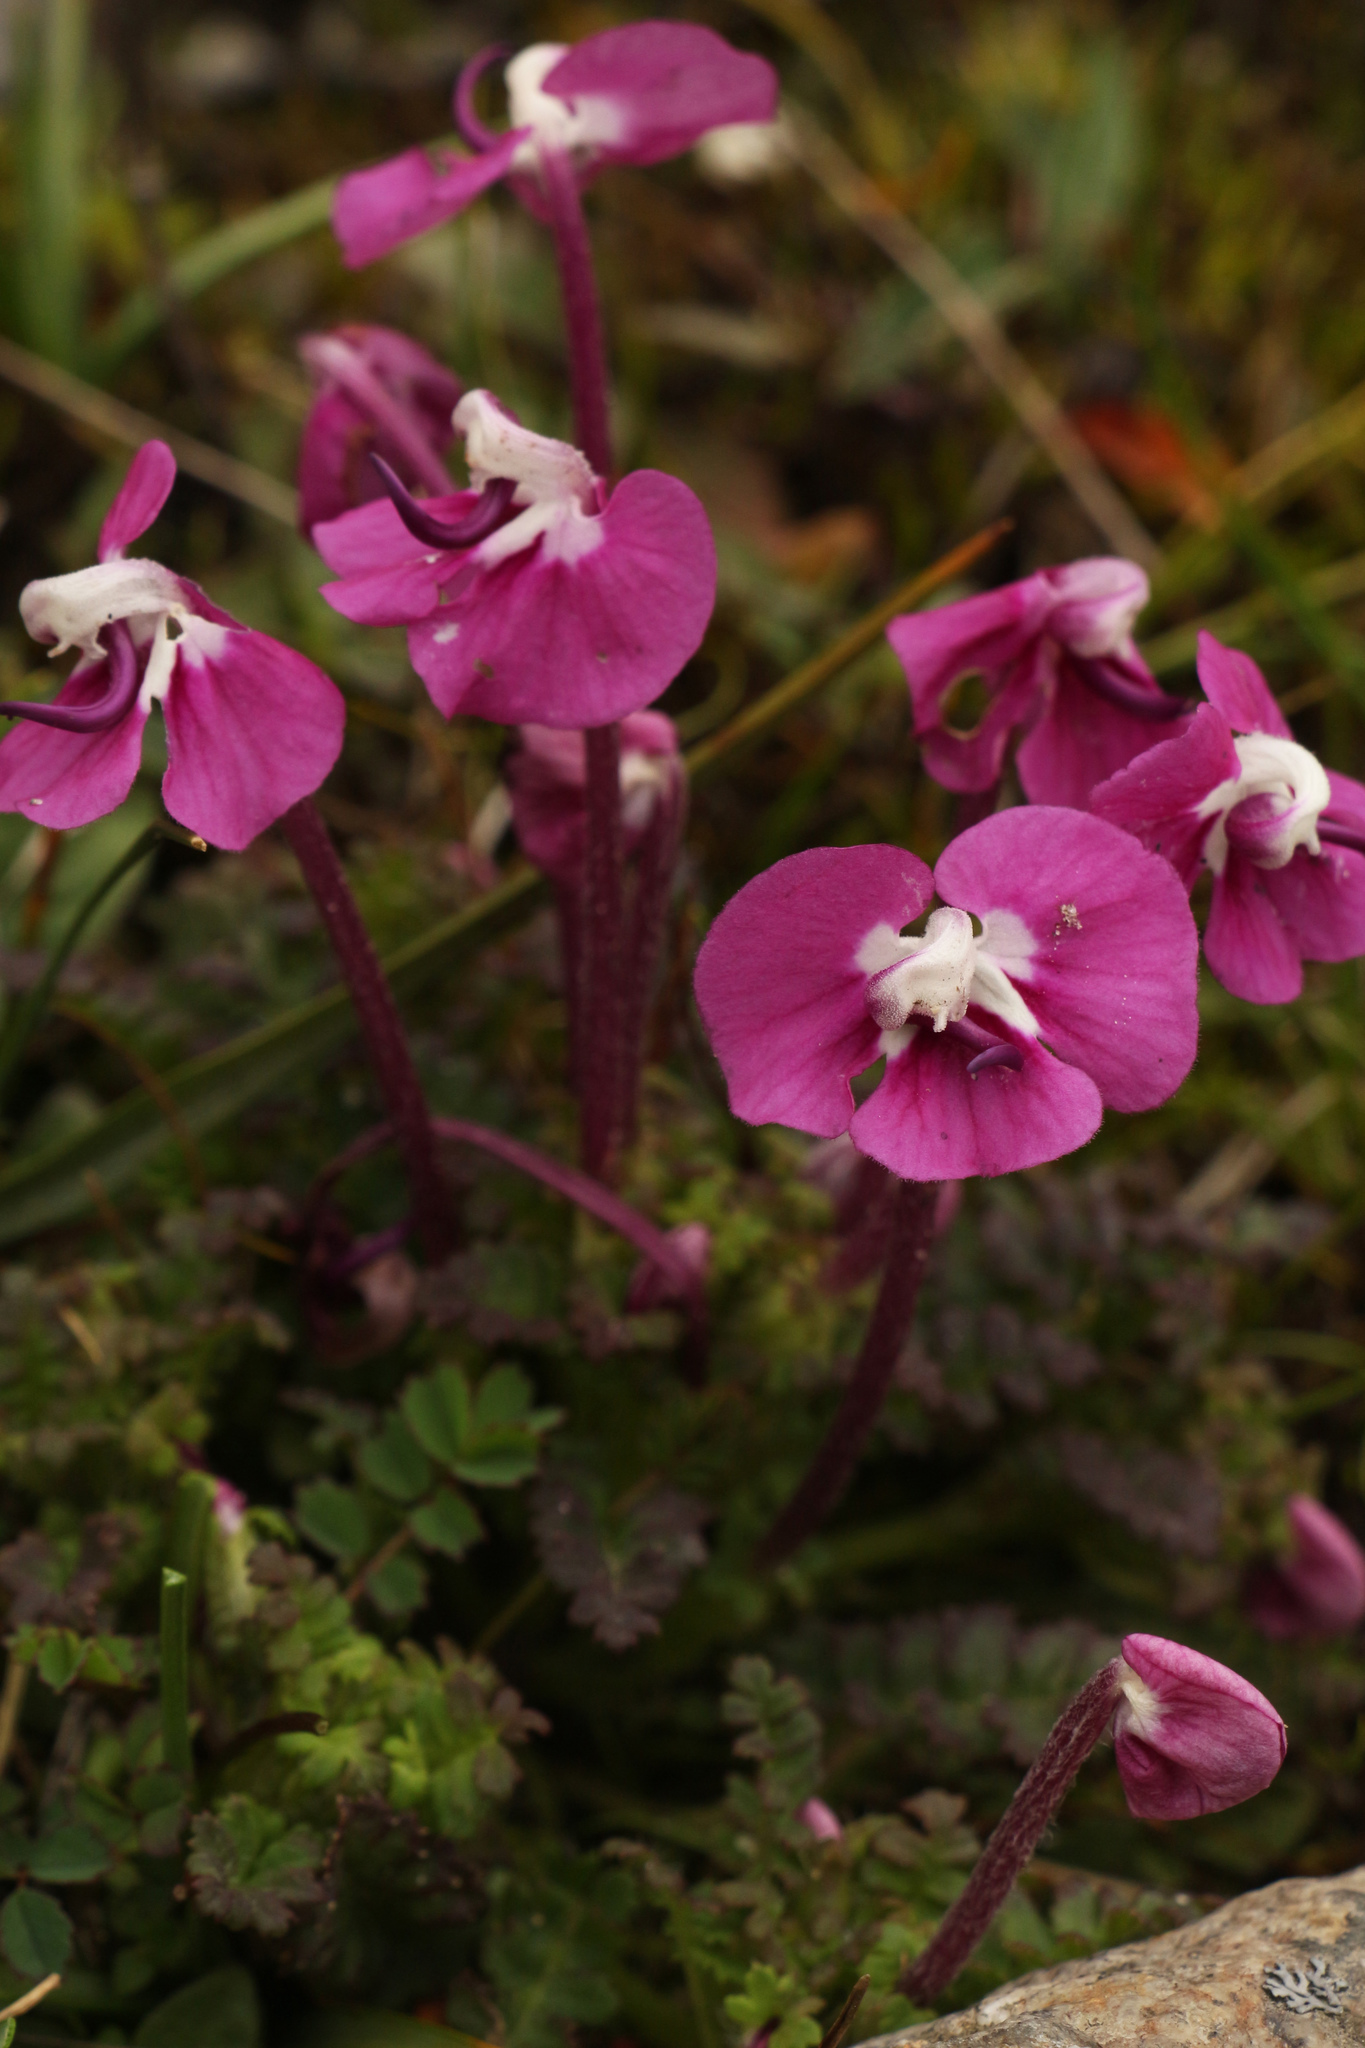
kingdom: Plantae
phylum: Tracheophyta
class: Magnoliopsida
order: Lamiales
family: Orobanchaceae
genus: Pedicularis
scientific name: Pedicularis siphonantha
